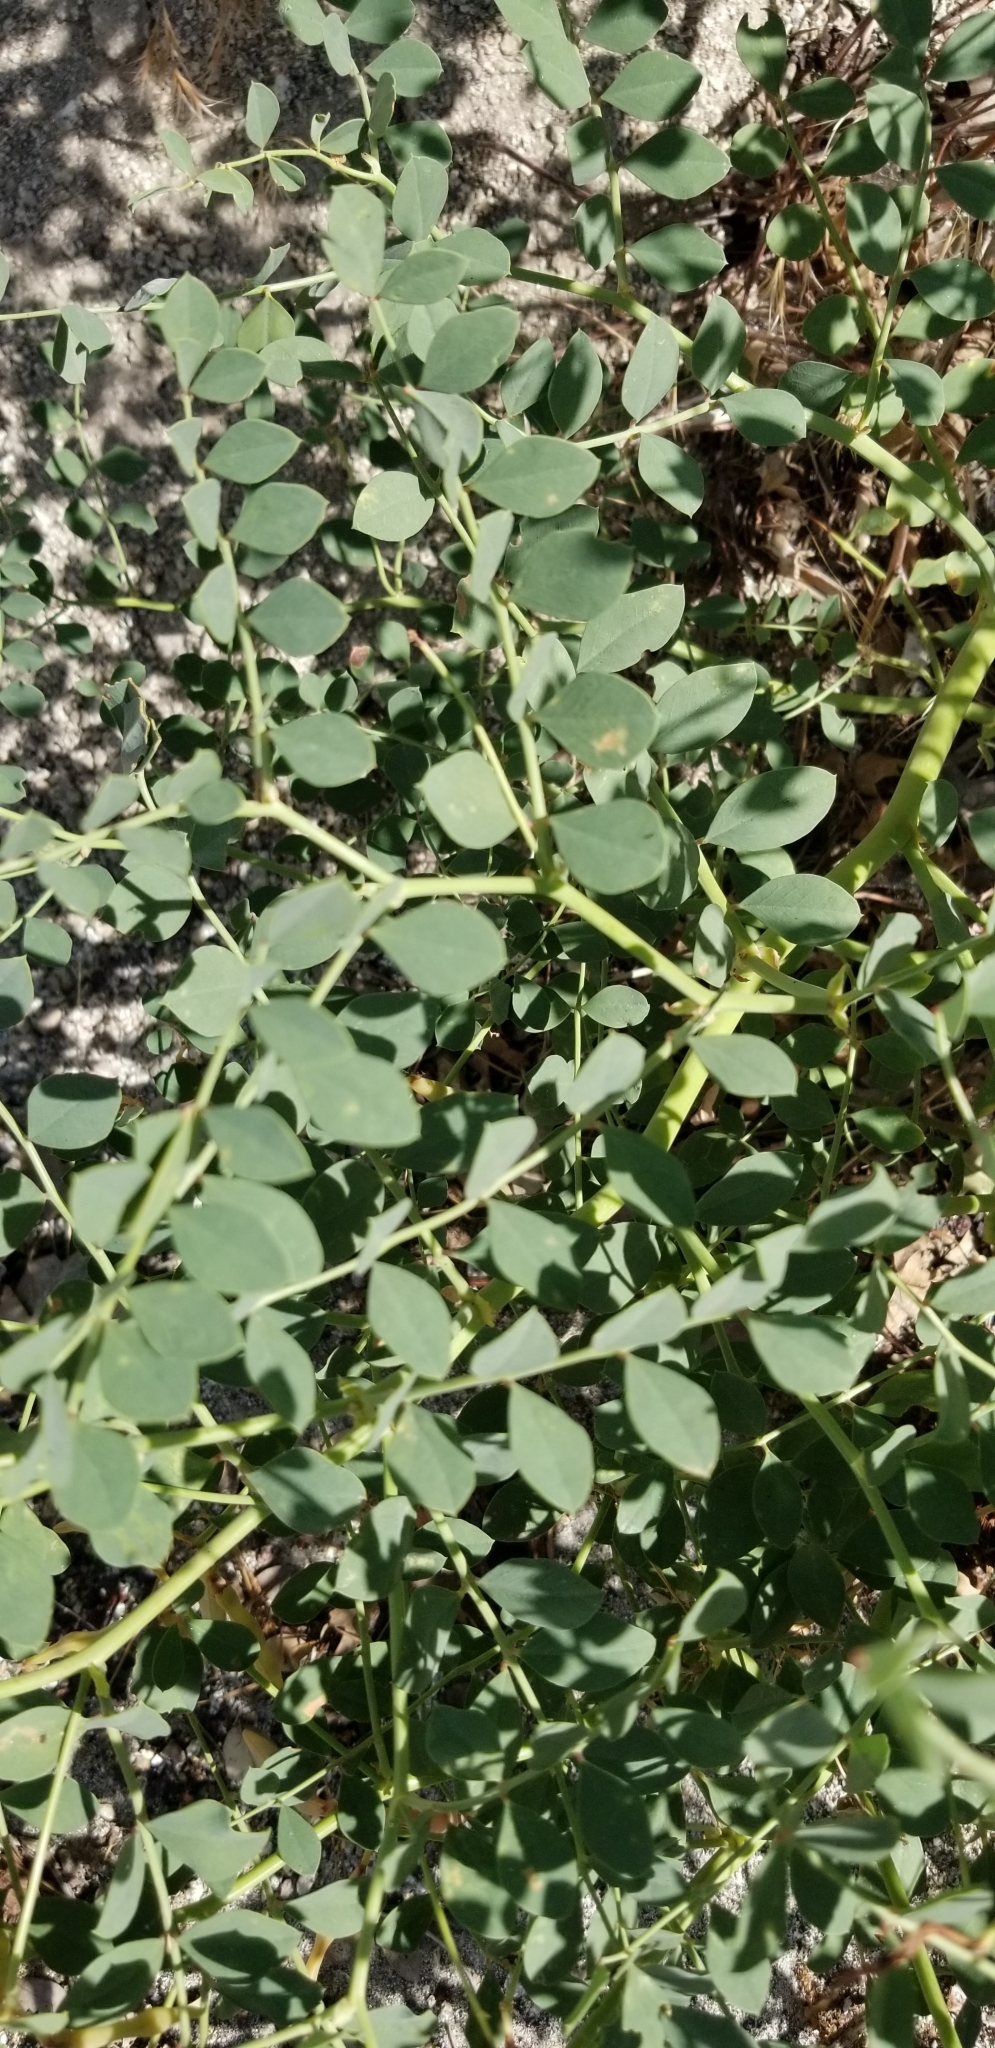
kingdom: Plantae
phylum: Tracheophyta
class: Magnoliopsida
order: Fabales
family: Fabaceae
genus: Hosackia
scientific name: Hosackia crassifolia
